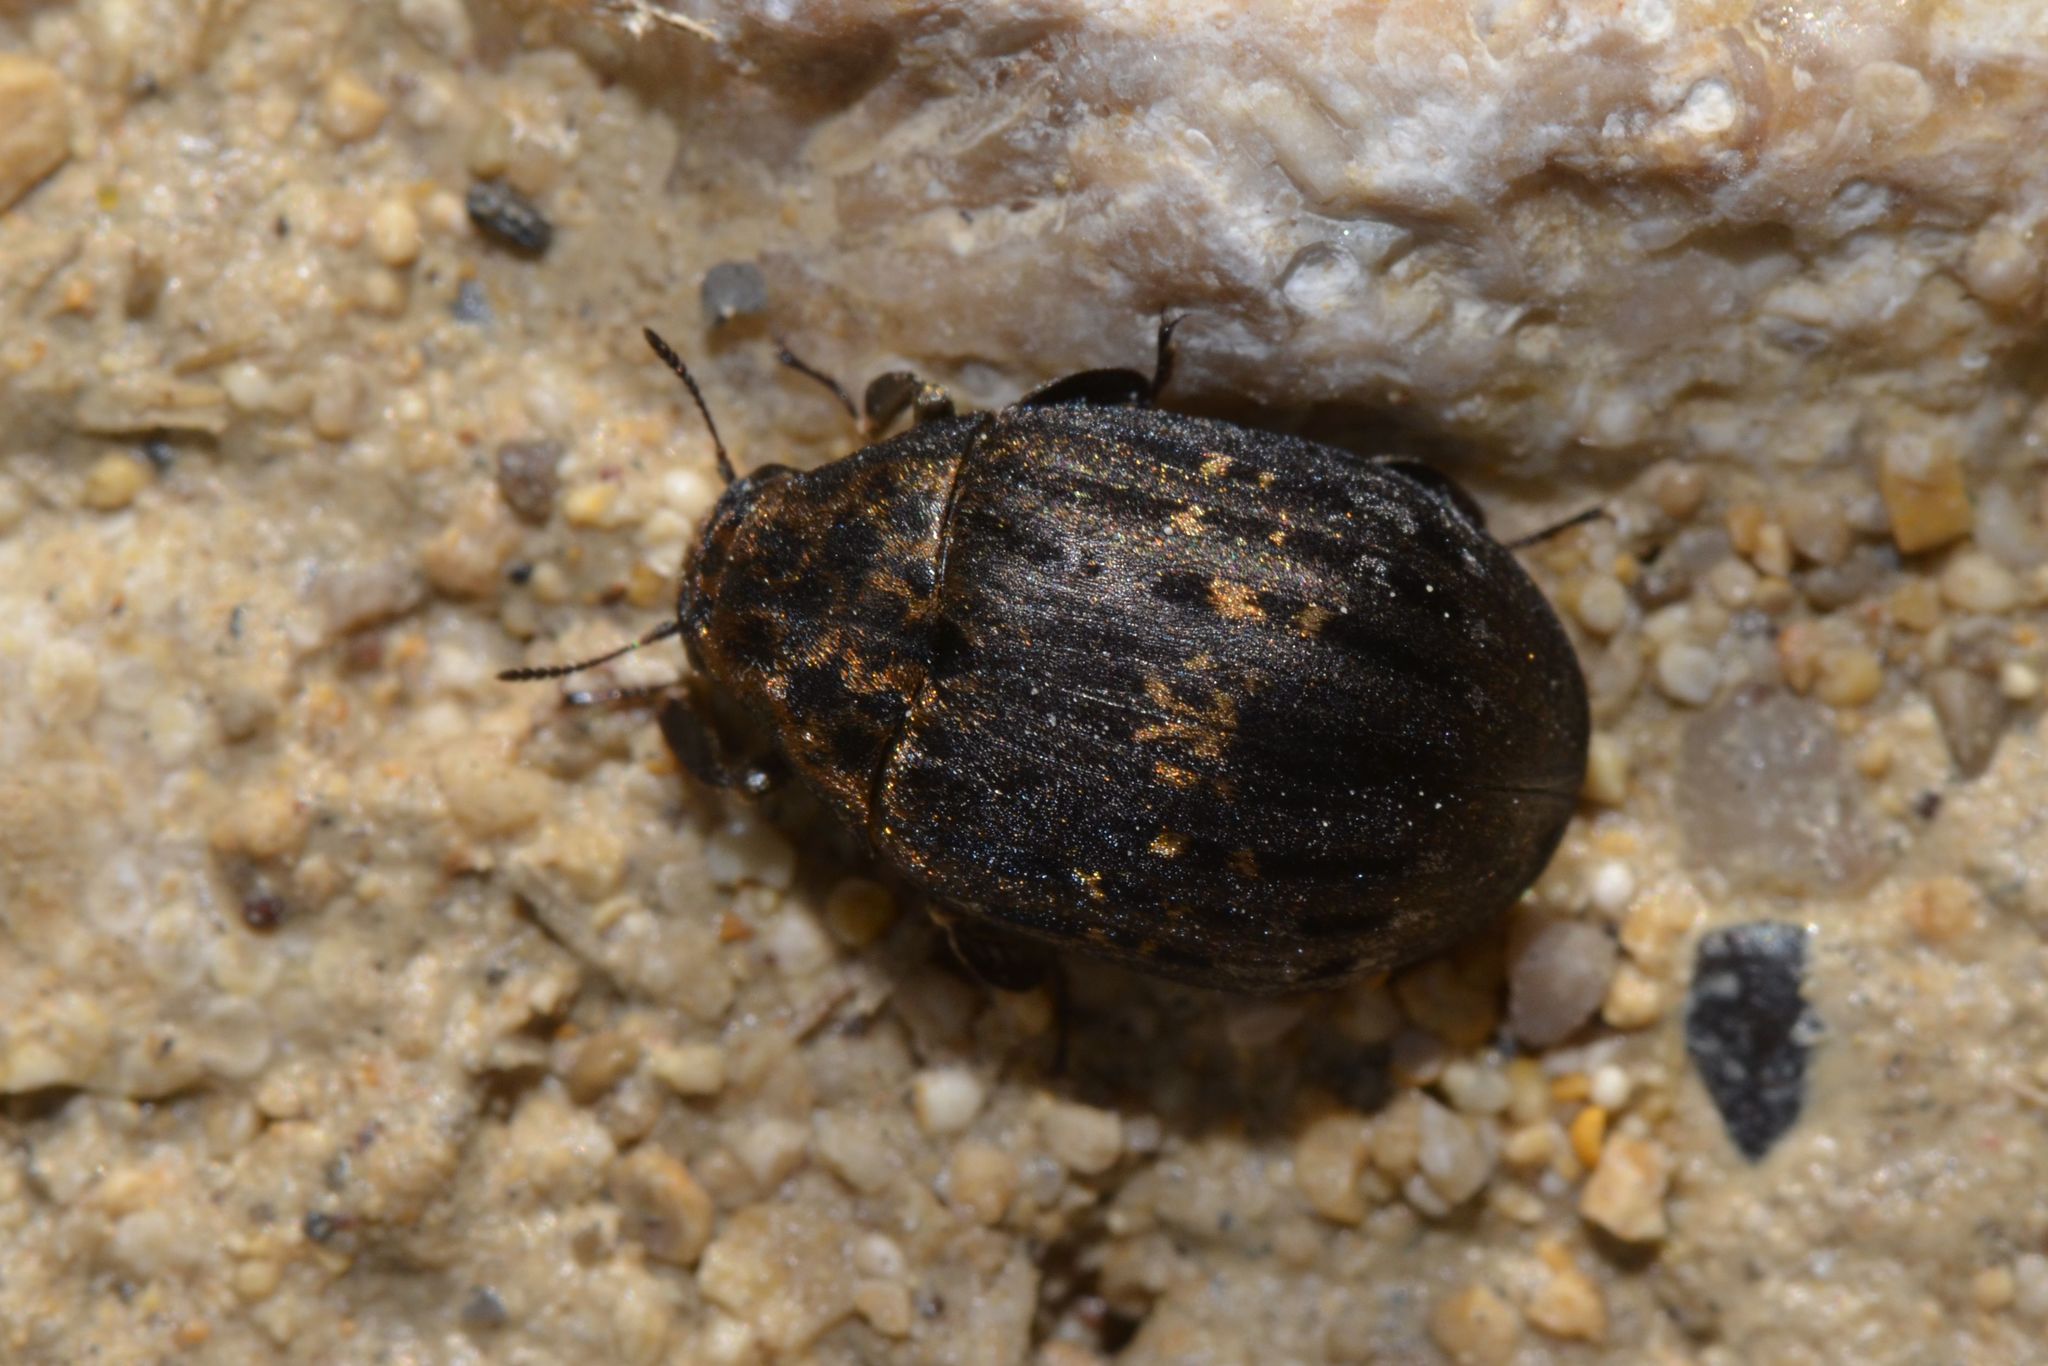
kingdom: Animalia
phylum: Arthropoda
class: Insecta
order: Coleoptera
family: Byrrhidae
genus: Byrrhus
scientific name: Byrrhus pilula
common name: Pill beetle
